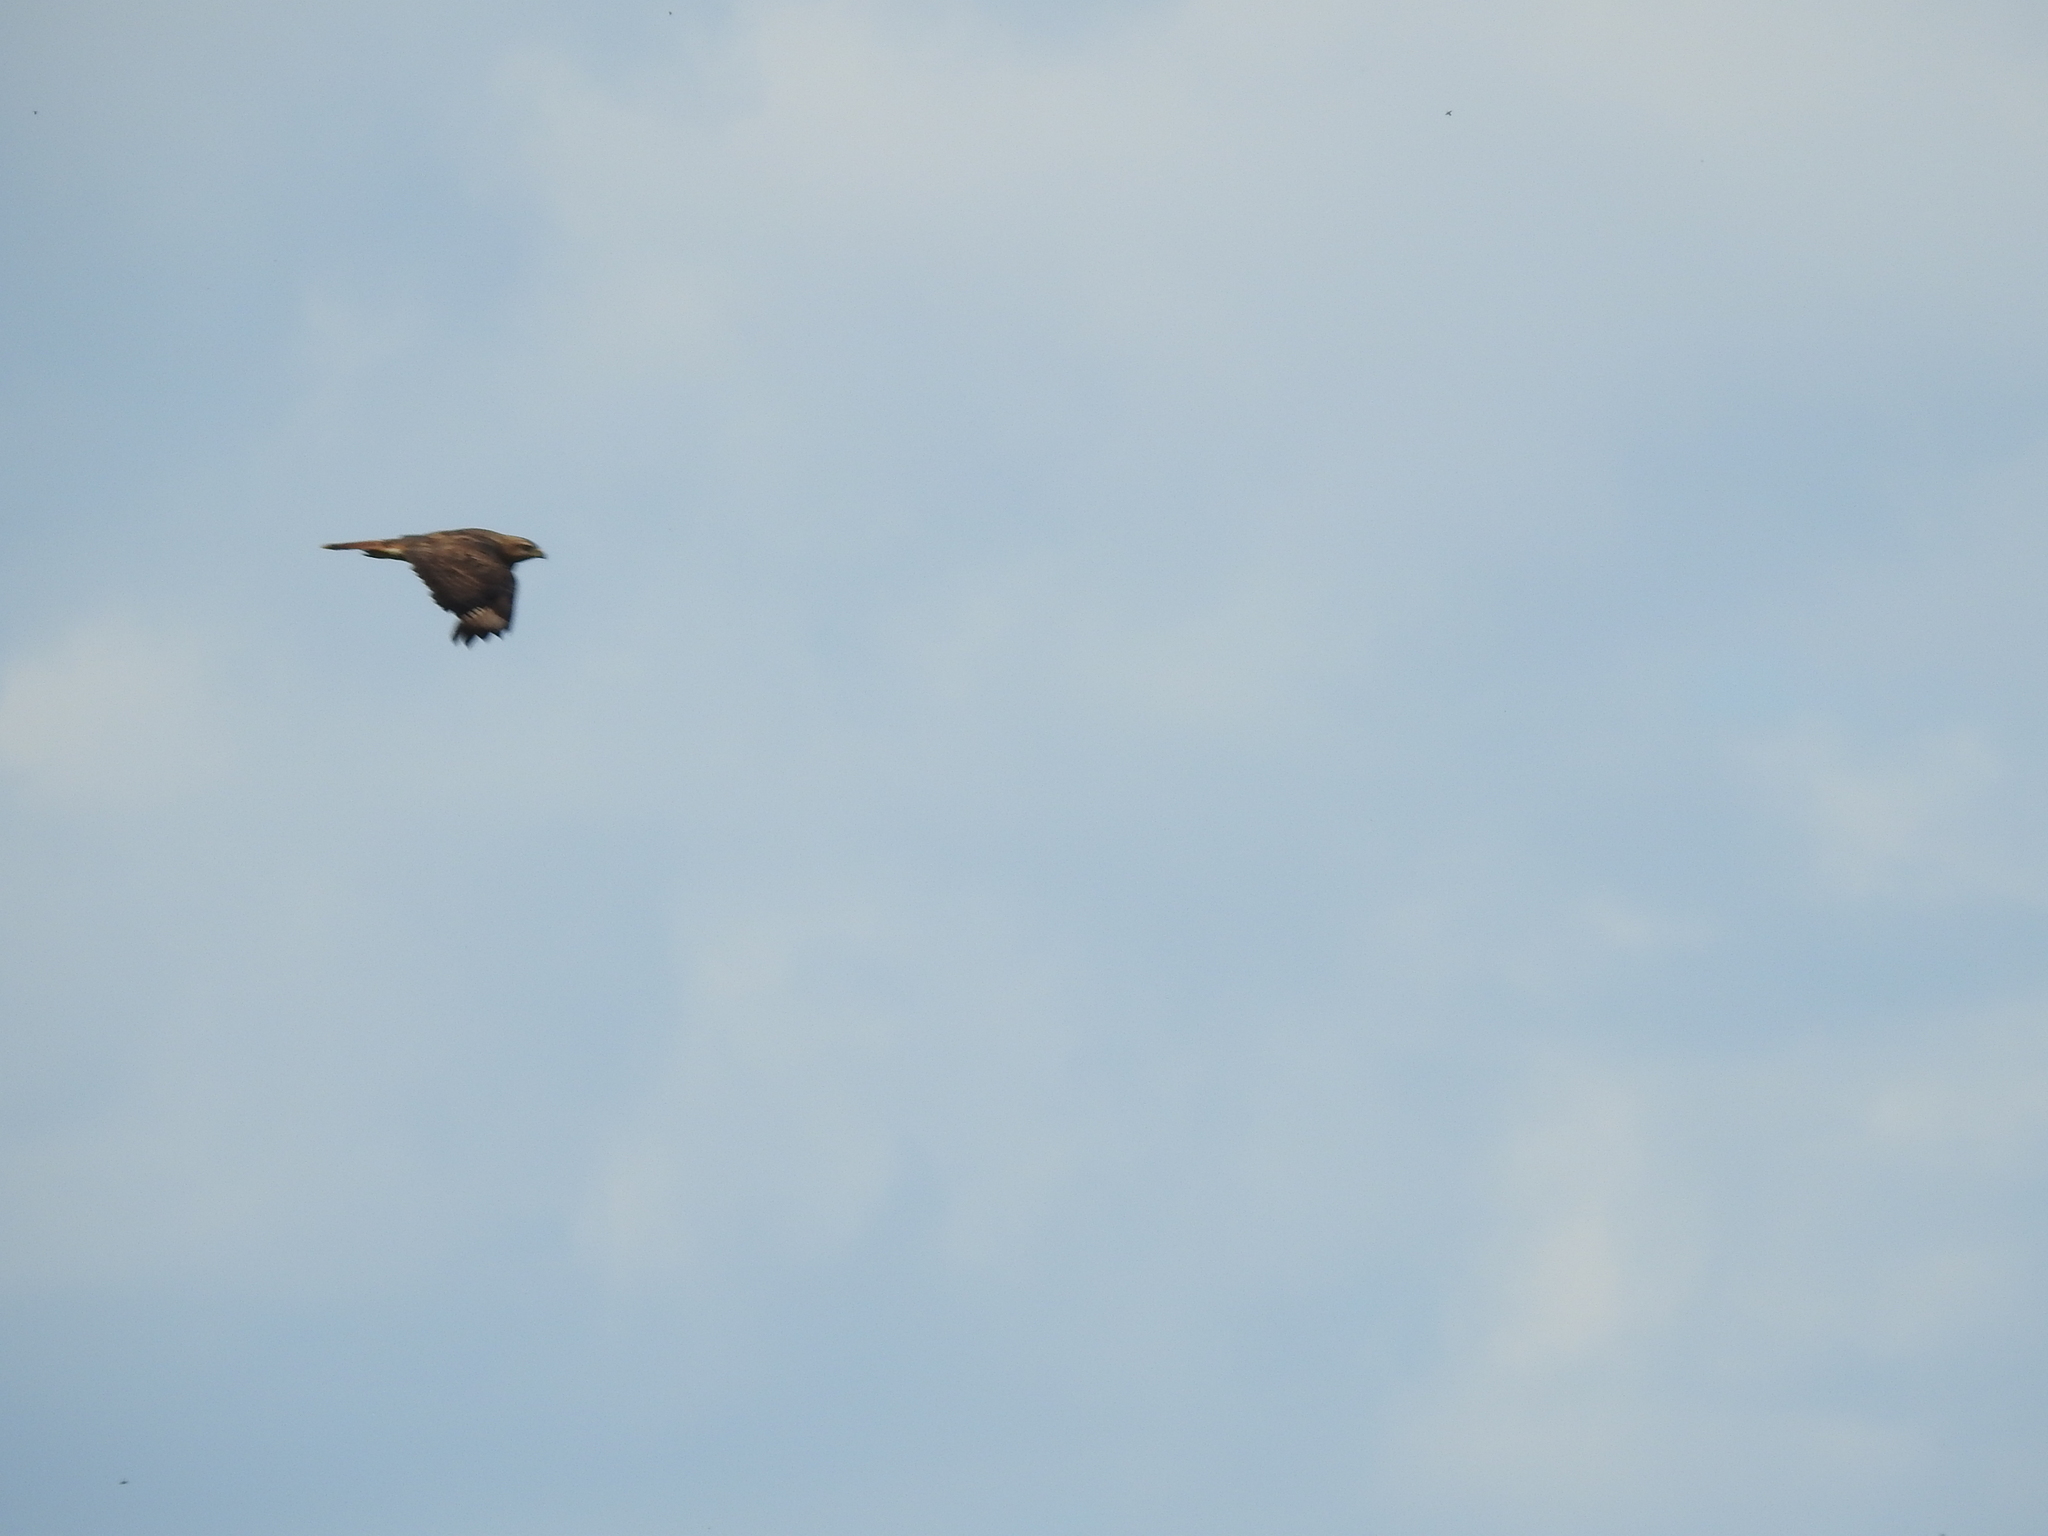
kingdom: Animalia
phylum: Chordata
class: Aves
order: Accipitriformes
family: Accipitridae
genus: Buteo
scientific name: Buteo buteo
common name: Common buzzard
